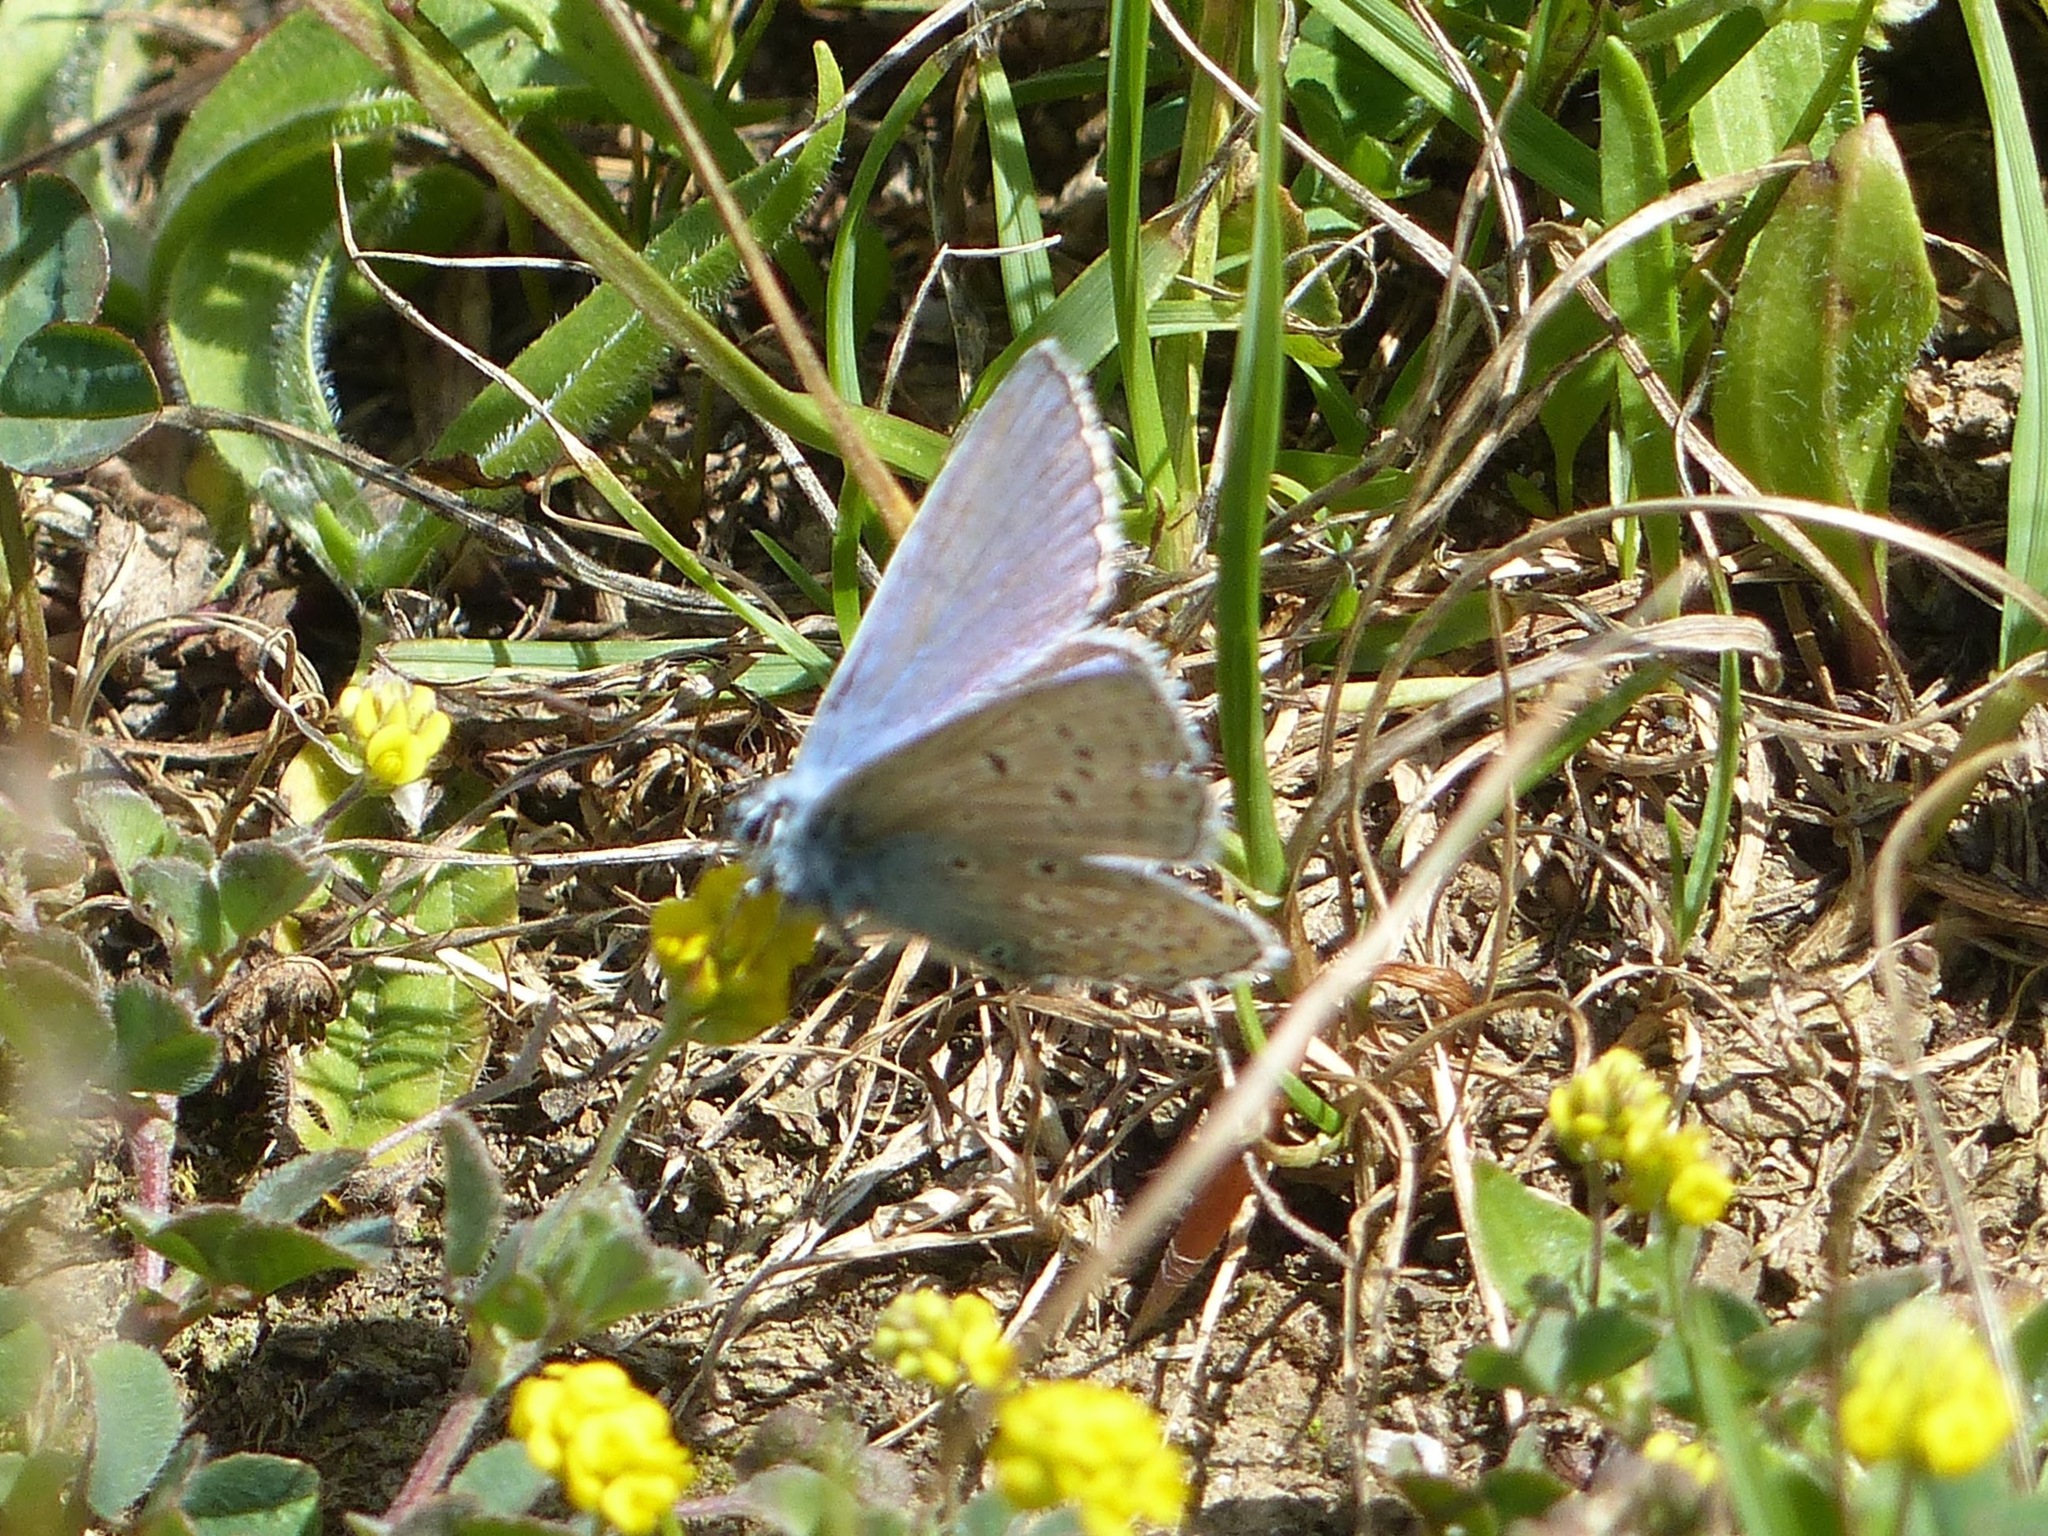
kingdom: Animalia
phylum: Arthropoda
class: Insecta
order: Lepidoptera
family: Lycaenidae
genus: Polyommatus
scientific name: Polyommatus icarus
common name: Common blue
